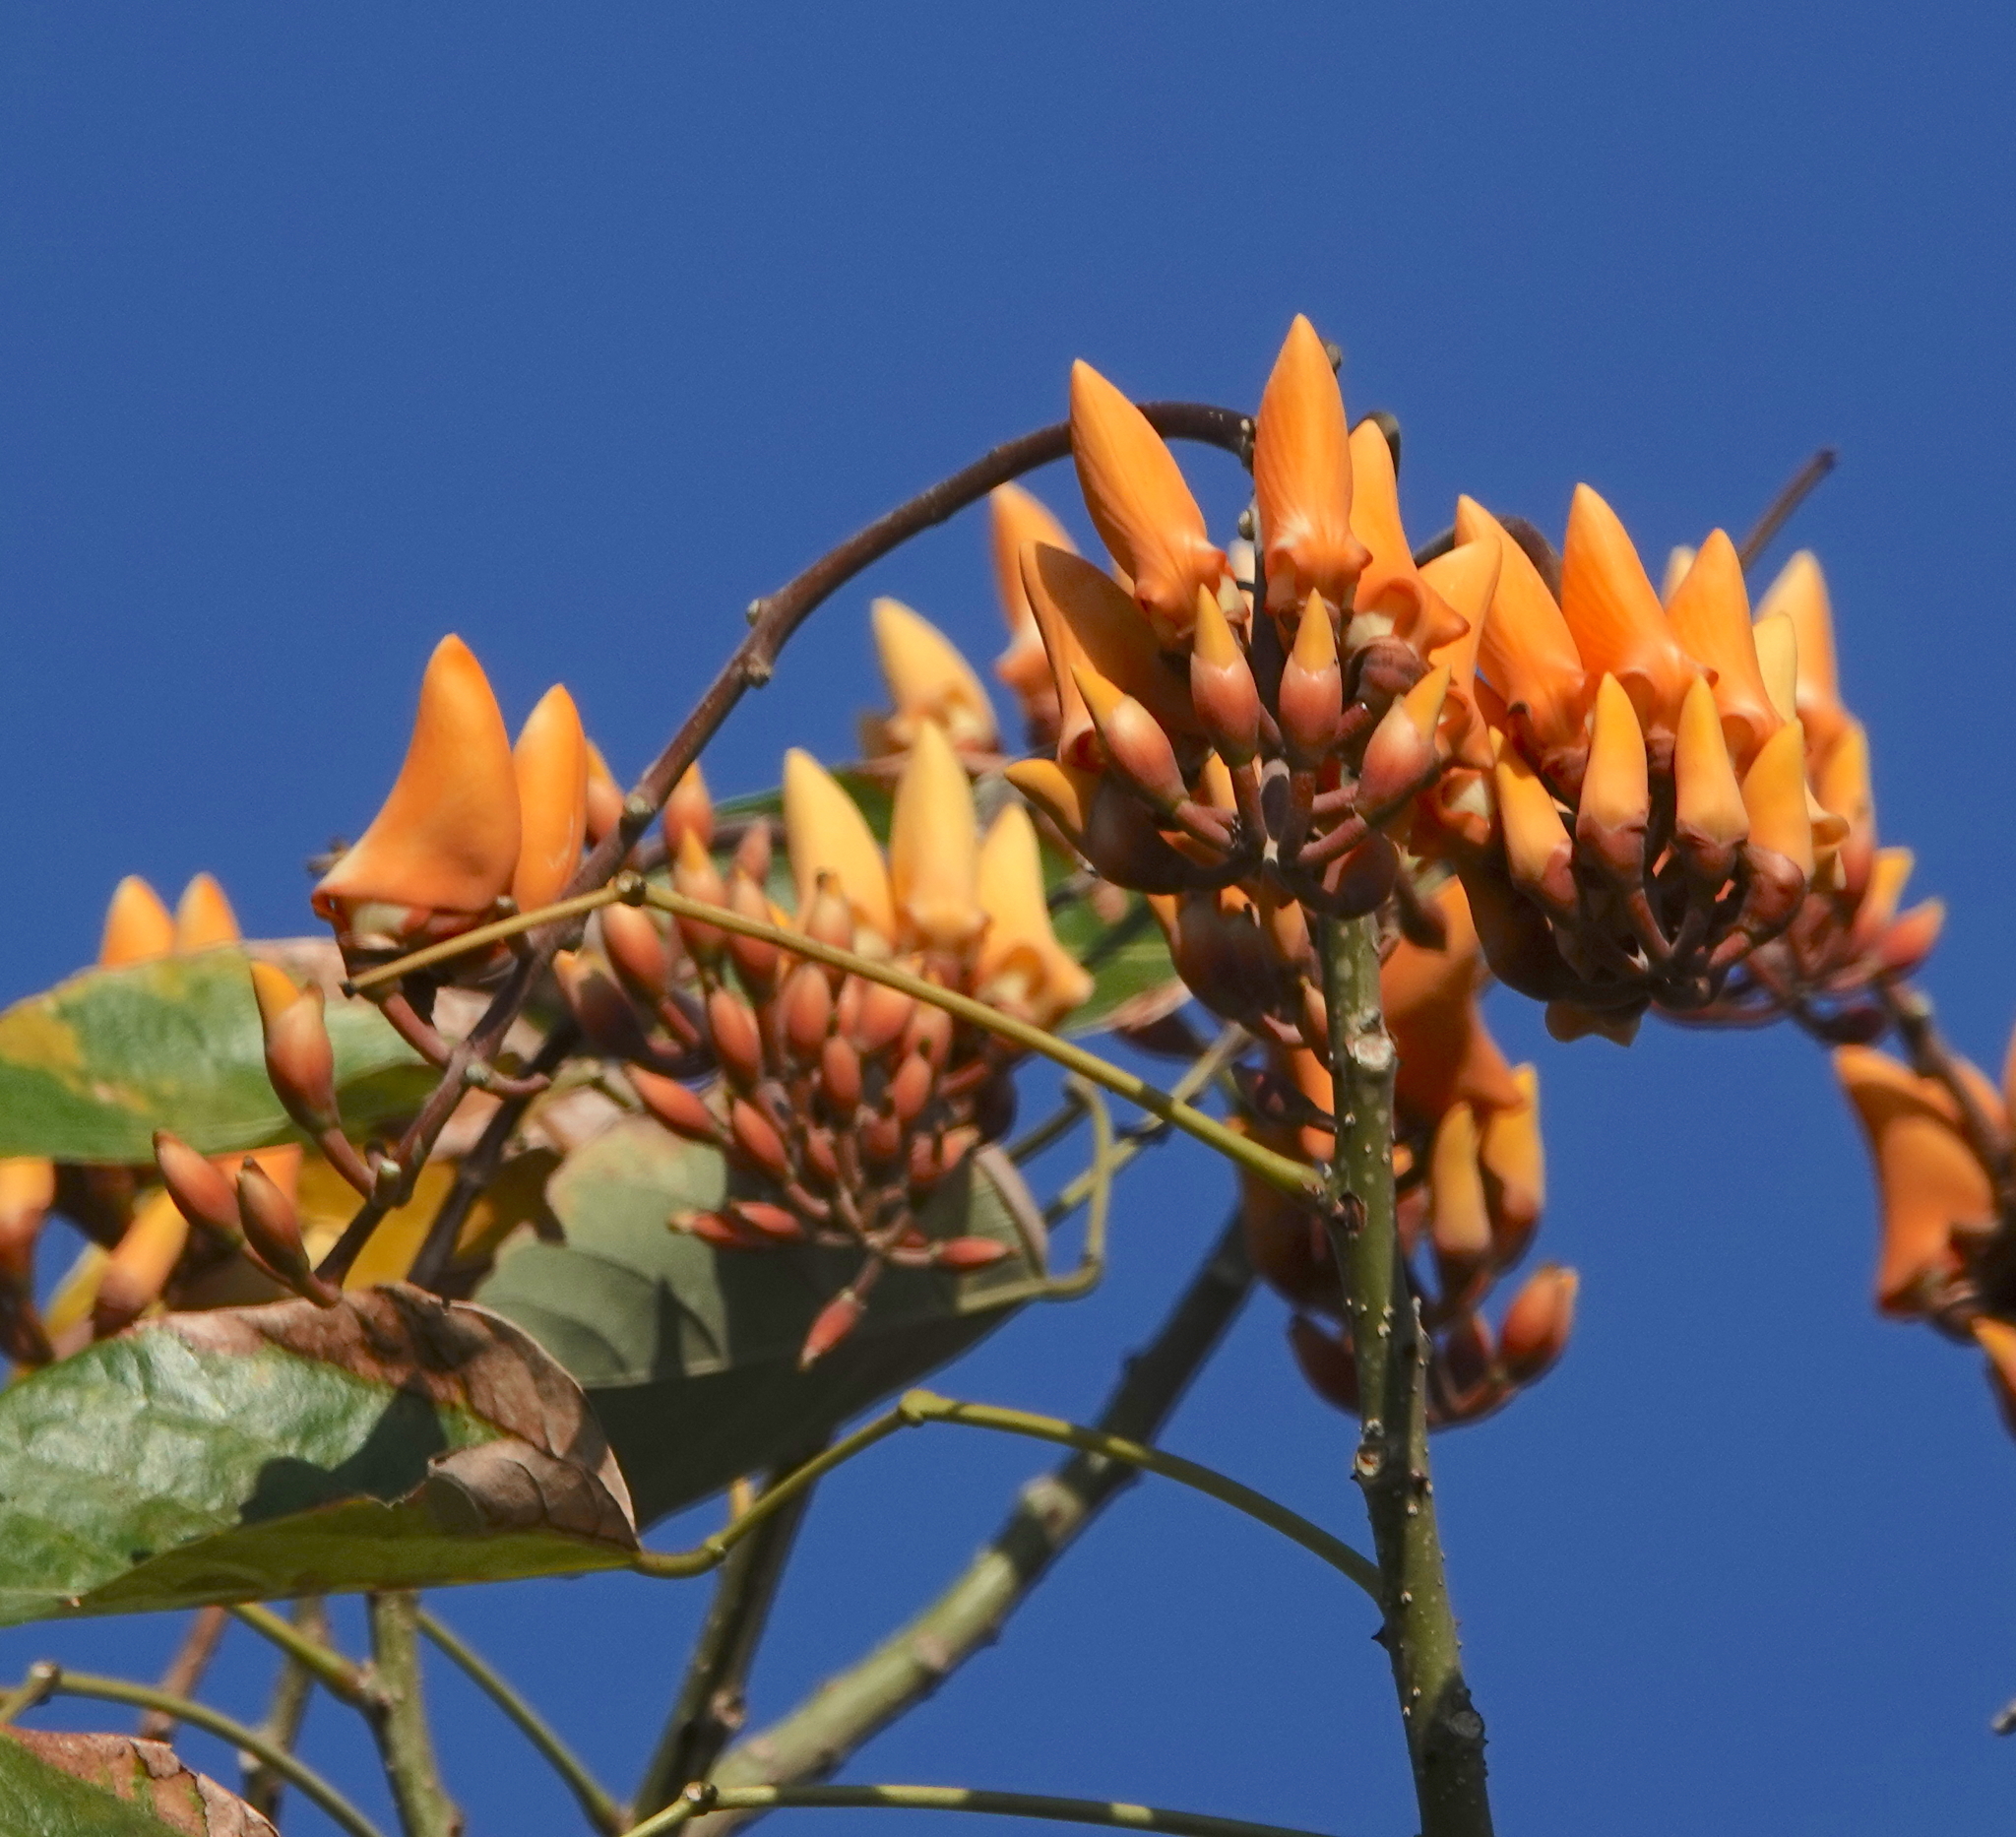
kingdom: Plantae
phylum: Tracheophyta
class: Magnoliopsida
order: Fabales
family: Fabaceae
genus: Erythrina
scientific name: Erythrina fusca
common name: Coral-bean
